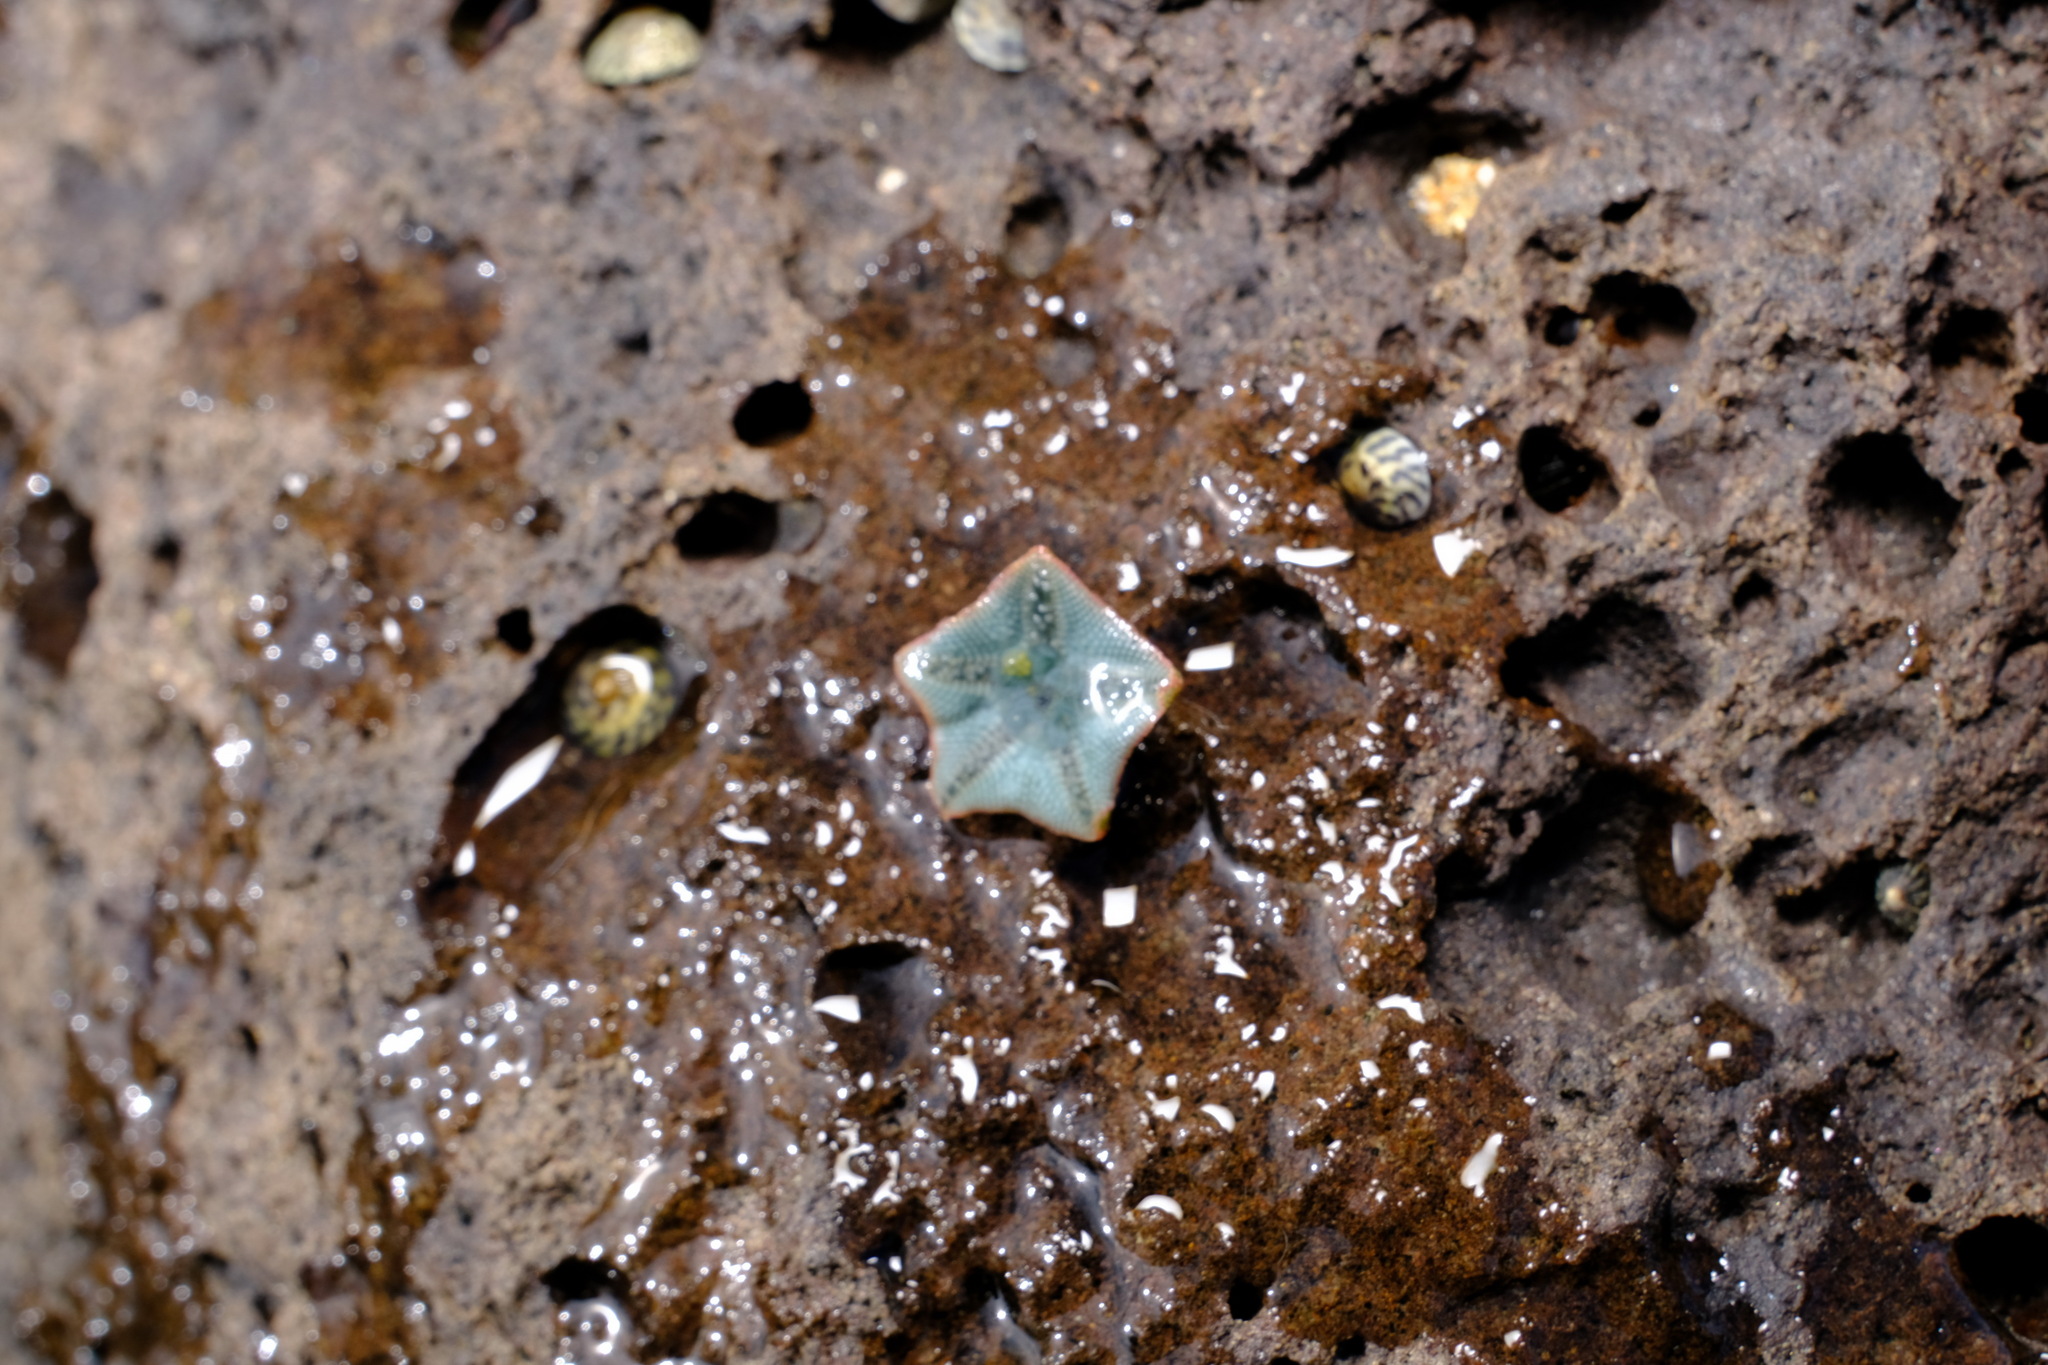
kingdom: Animalia
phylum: Echinodermata
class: Asteroidea
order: Valvatida
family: Asterinidae
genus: Parvulastra
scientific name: Parvulastra exigua
